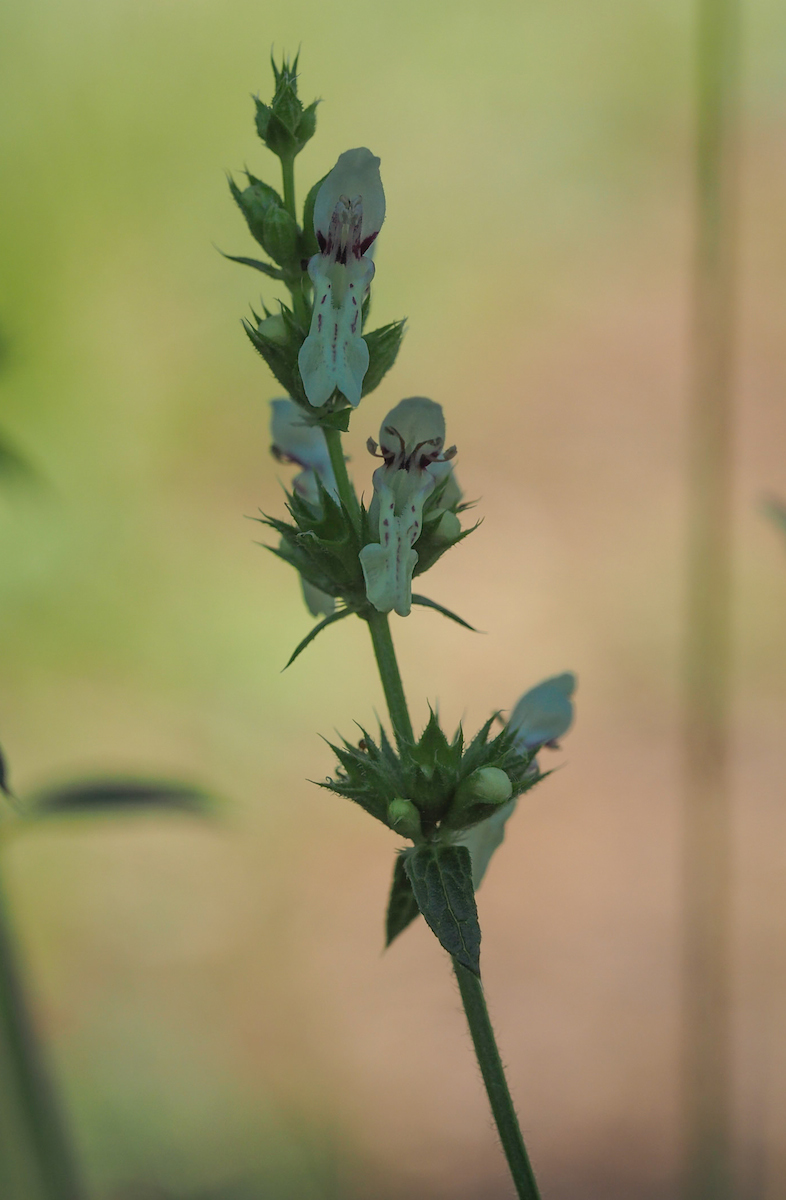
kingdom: Plantae
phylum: Tracheophyta
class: Magnoliopsida
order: Lamiales
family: Lamiaceae
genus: Stachys
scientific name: Stachys recta
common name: Perennial yellow-woundwort
